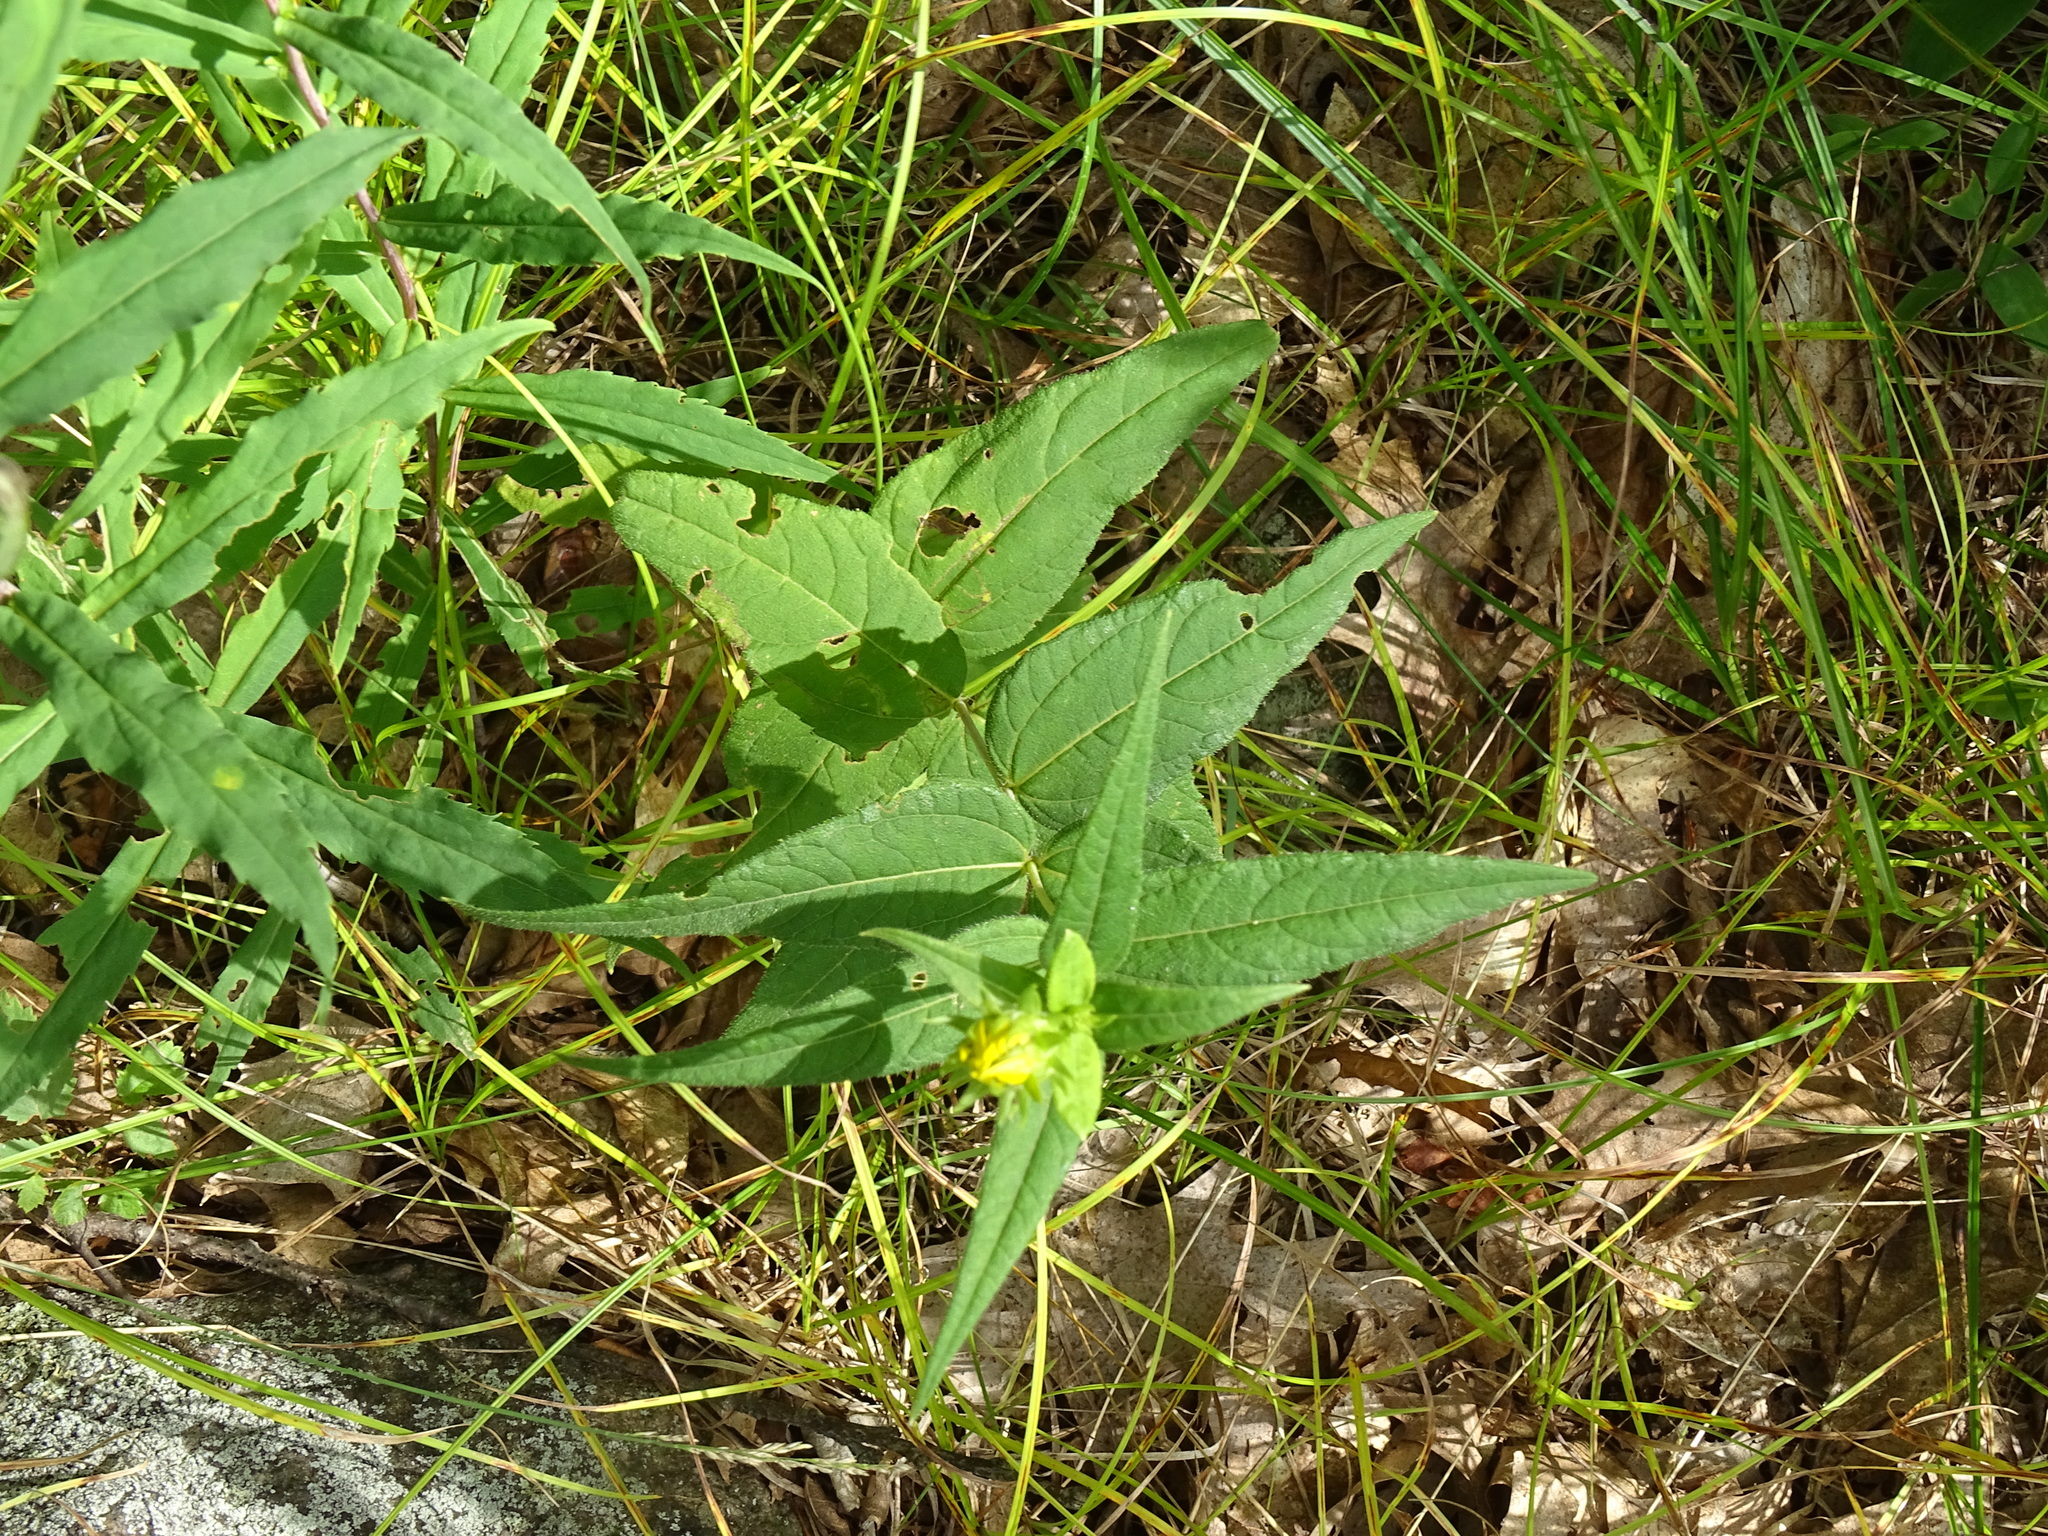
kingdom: Plantae
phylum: Tracheophyta
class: Magnoliopsida
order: Asterales
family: Asteraceae
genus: Helianthus
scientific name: Helianthus divaricatus
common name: Divergent sunflower
